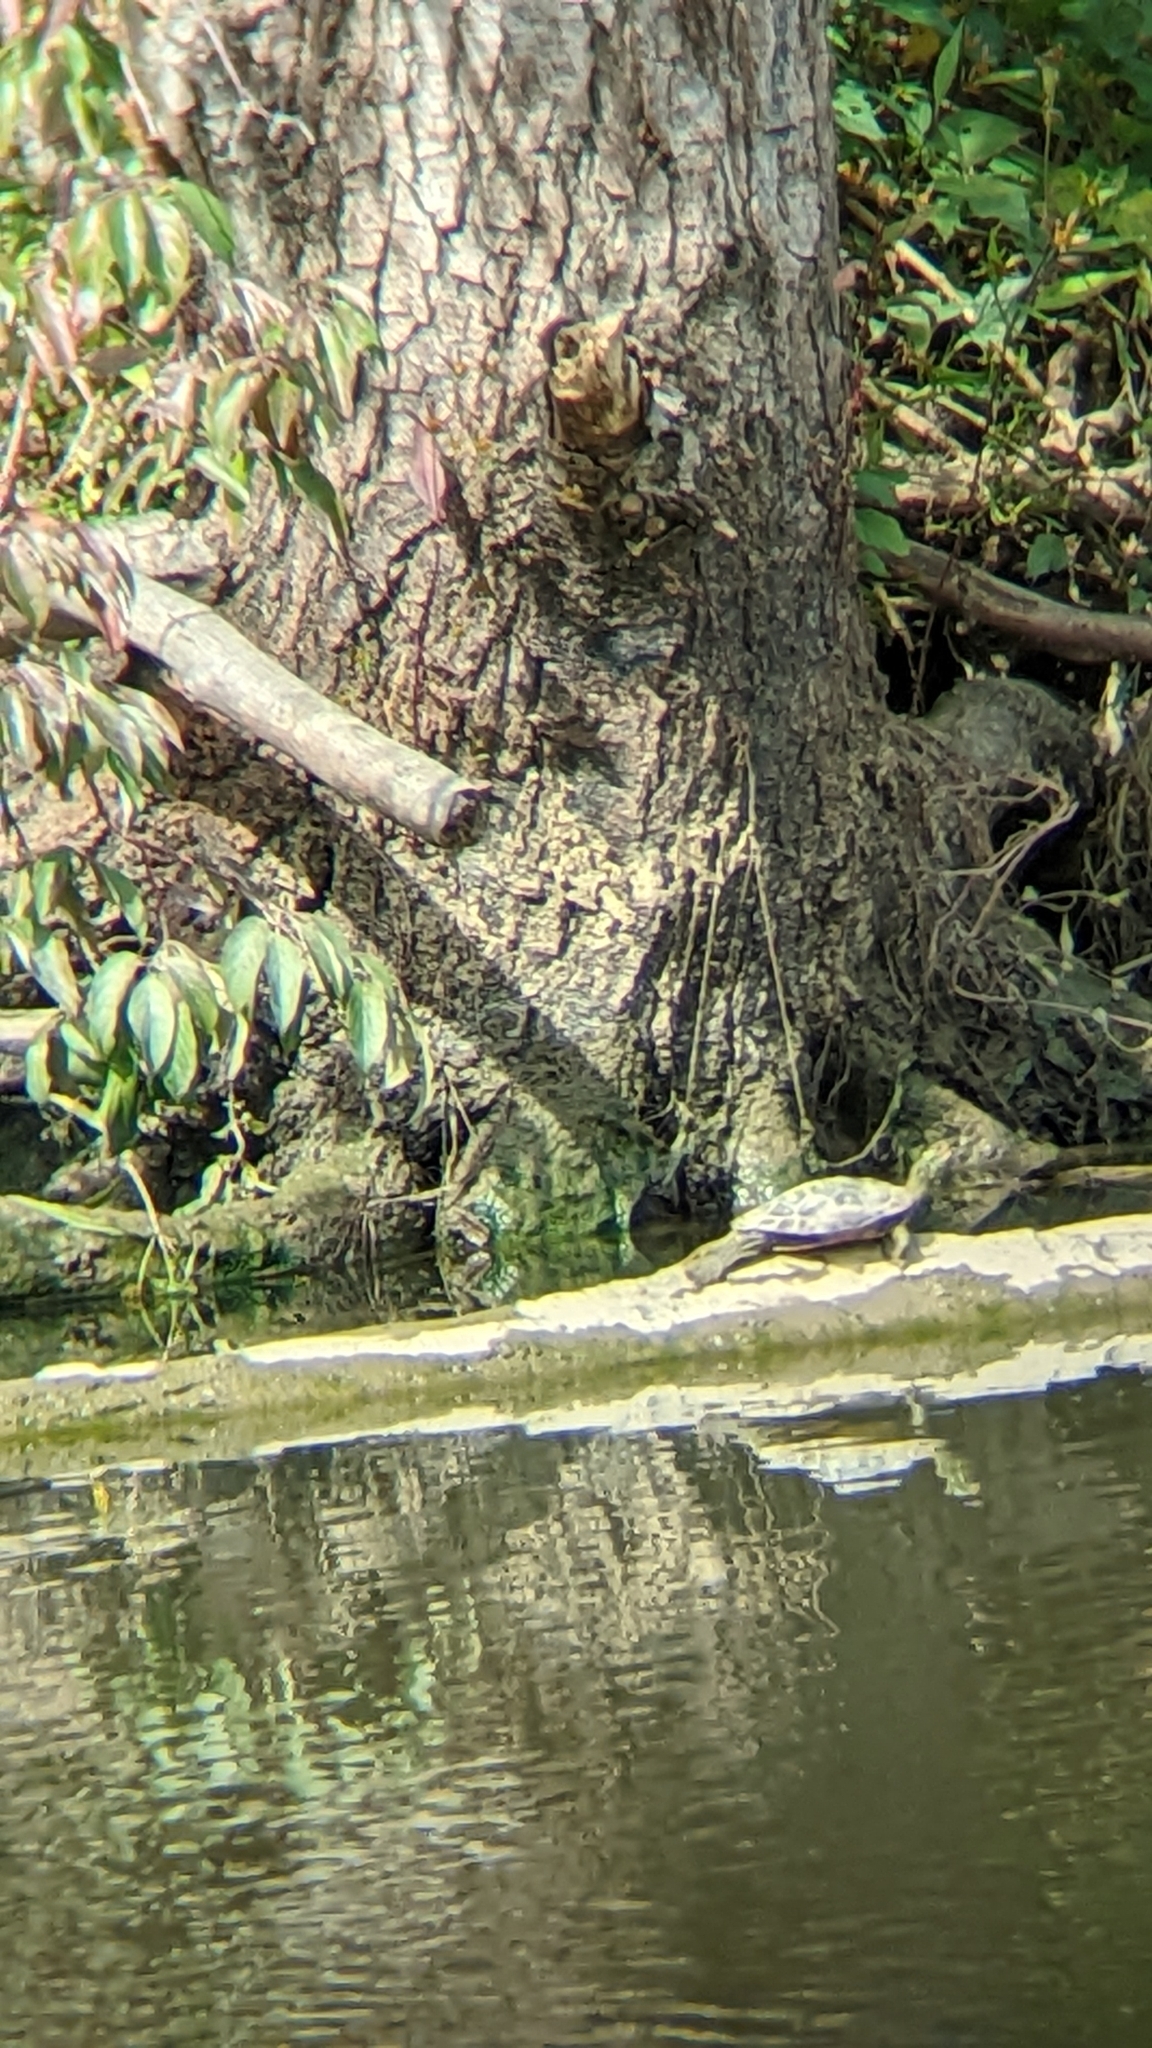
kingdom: Animalia
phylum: Chordata
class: Testudines
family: Emydidae
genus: Graptemys
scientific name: Graptemys geographica
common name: Common map turtle
